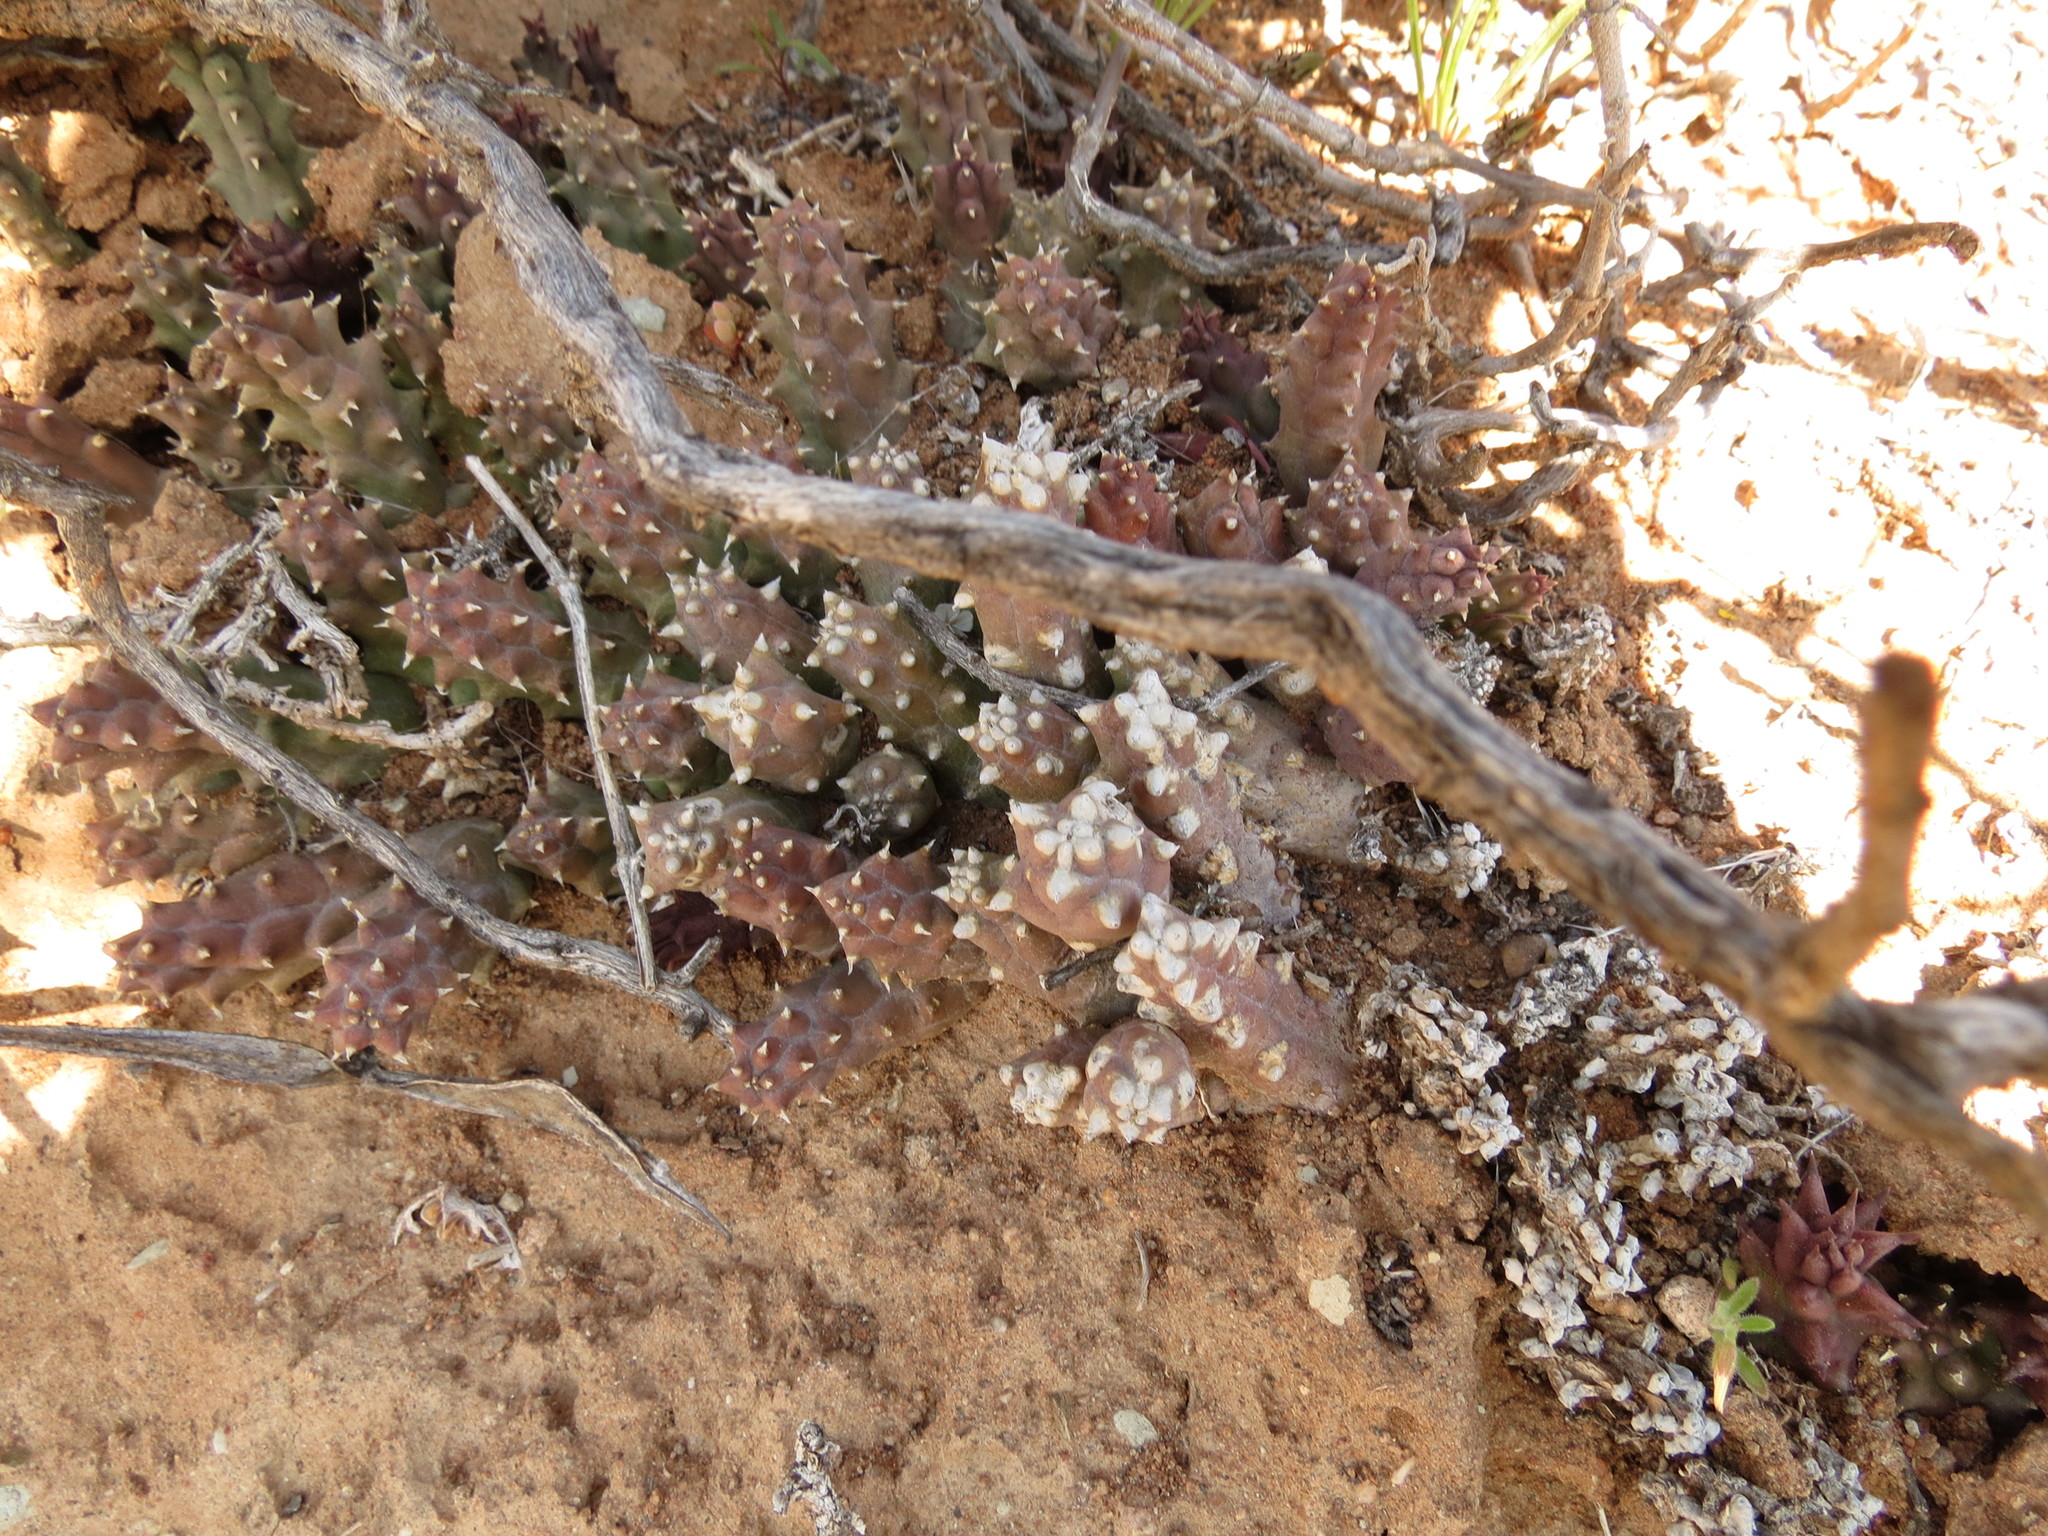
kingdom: Plantae
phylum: Tracheophyta
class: Magnoliopsida
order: Gentianales
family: Apocynaceae
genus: Ceropegia
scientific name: Ceropegia caespitosa
